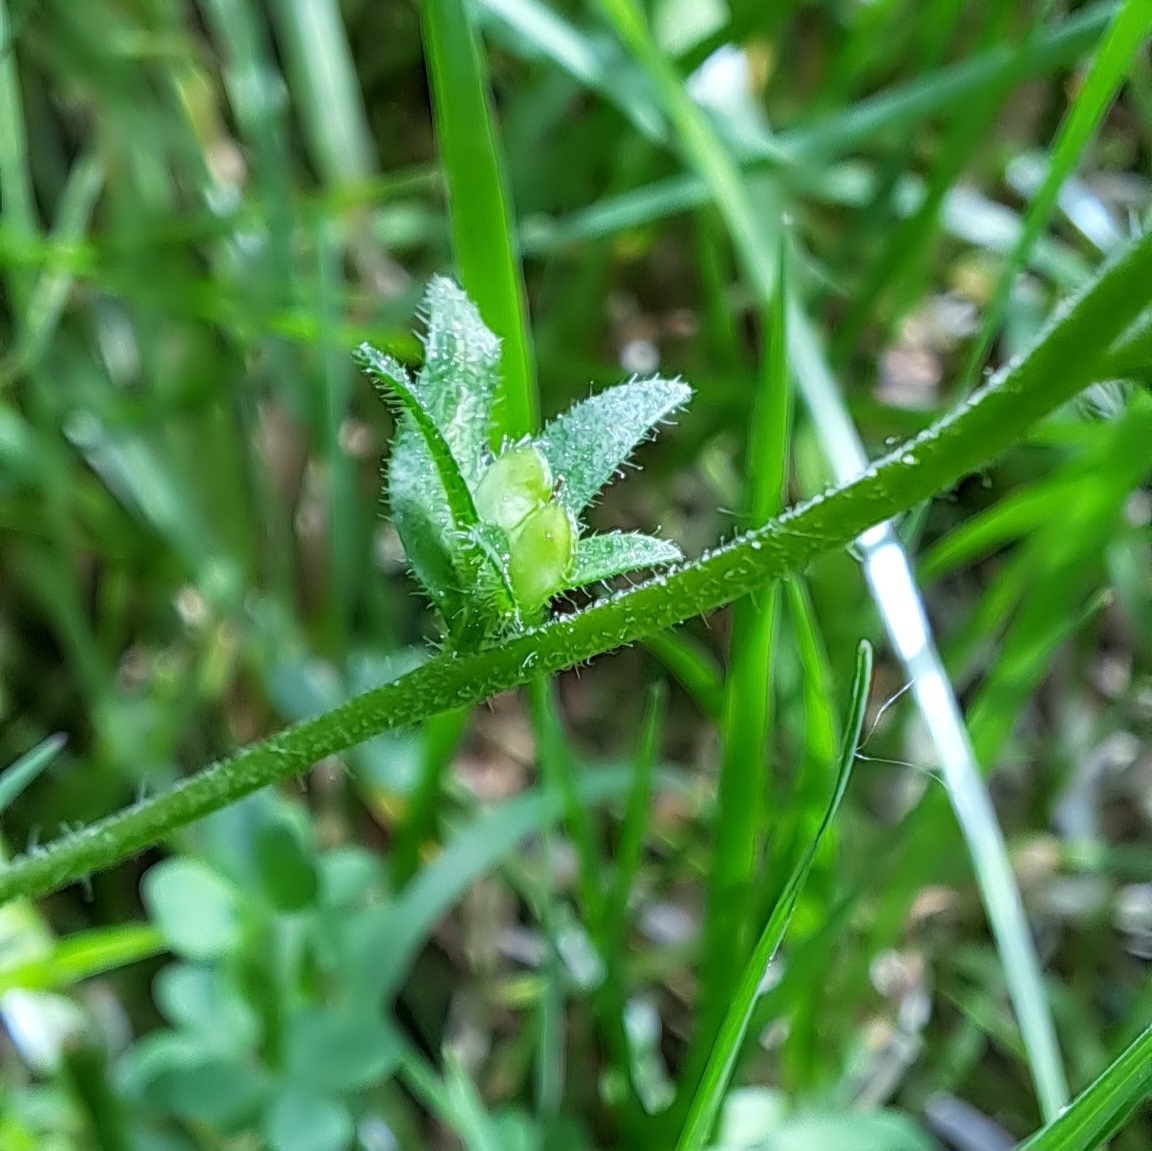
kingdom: Plantae
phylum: Tracheophyta
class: Magnoliopsida
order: Lamiales
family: Plantaginaceae
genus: Veronica
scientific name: Veronica arvensis
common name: Corn speedwell
